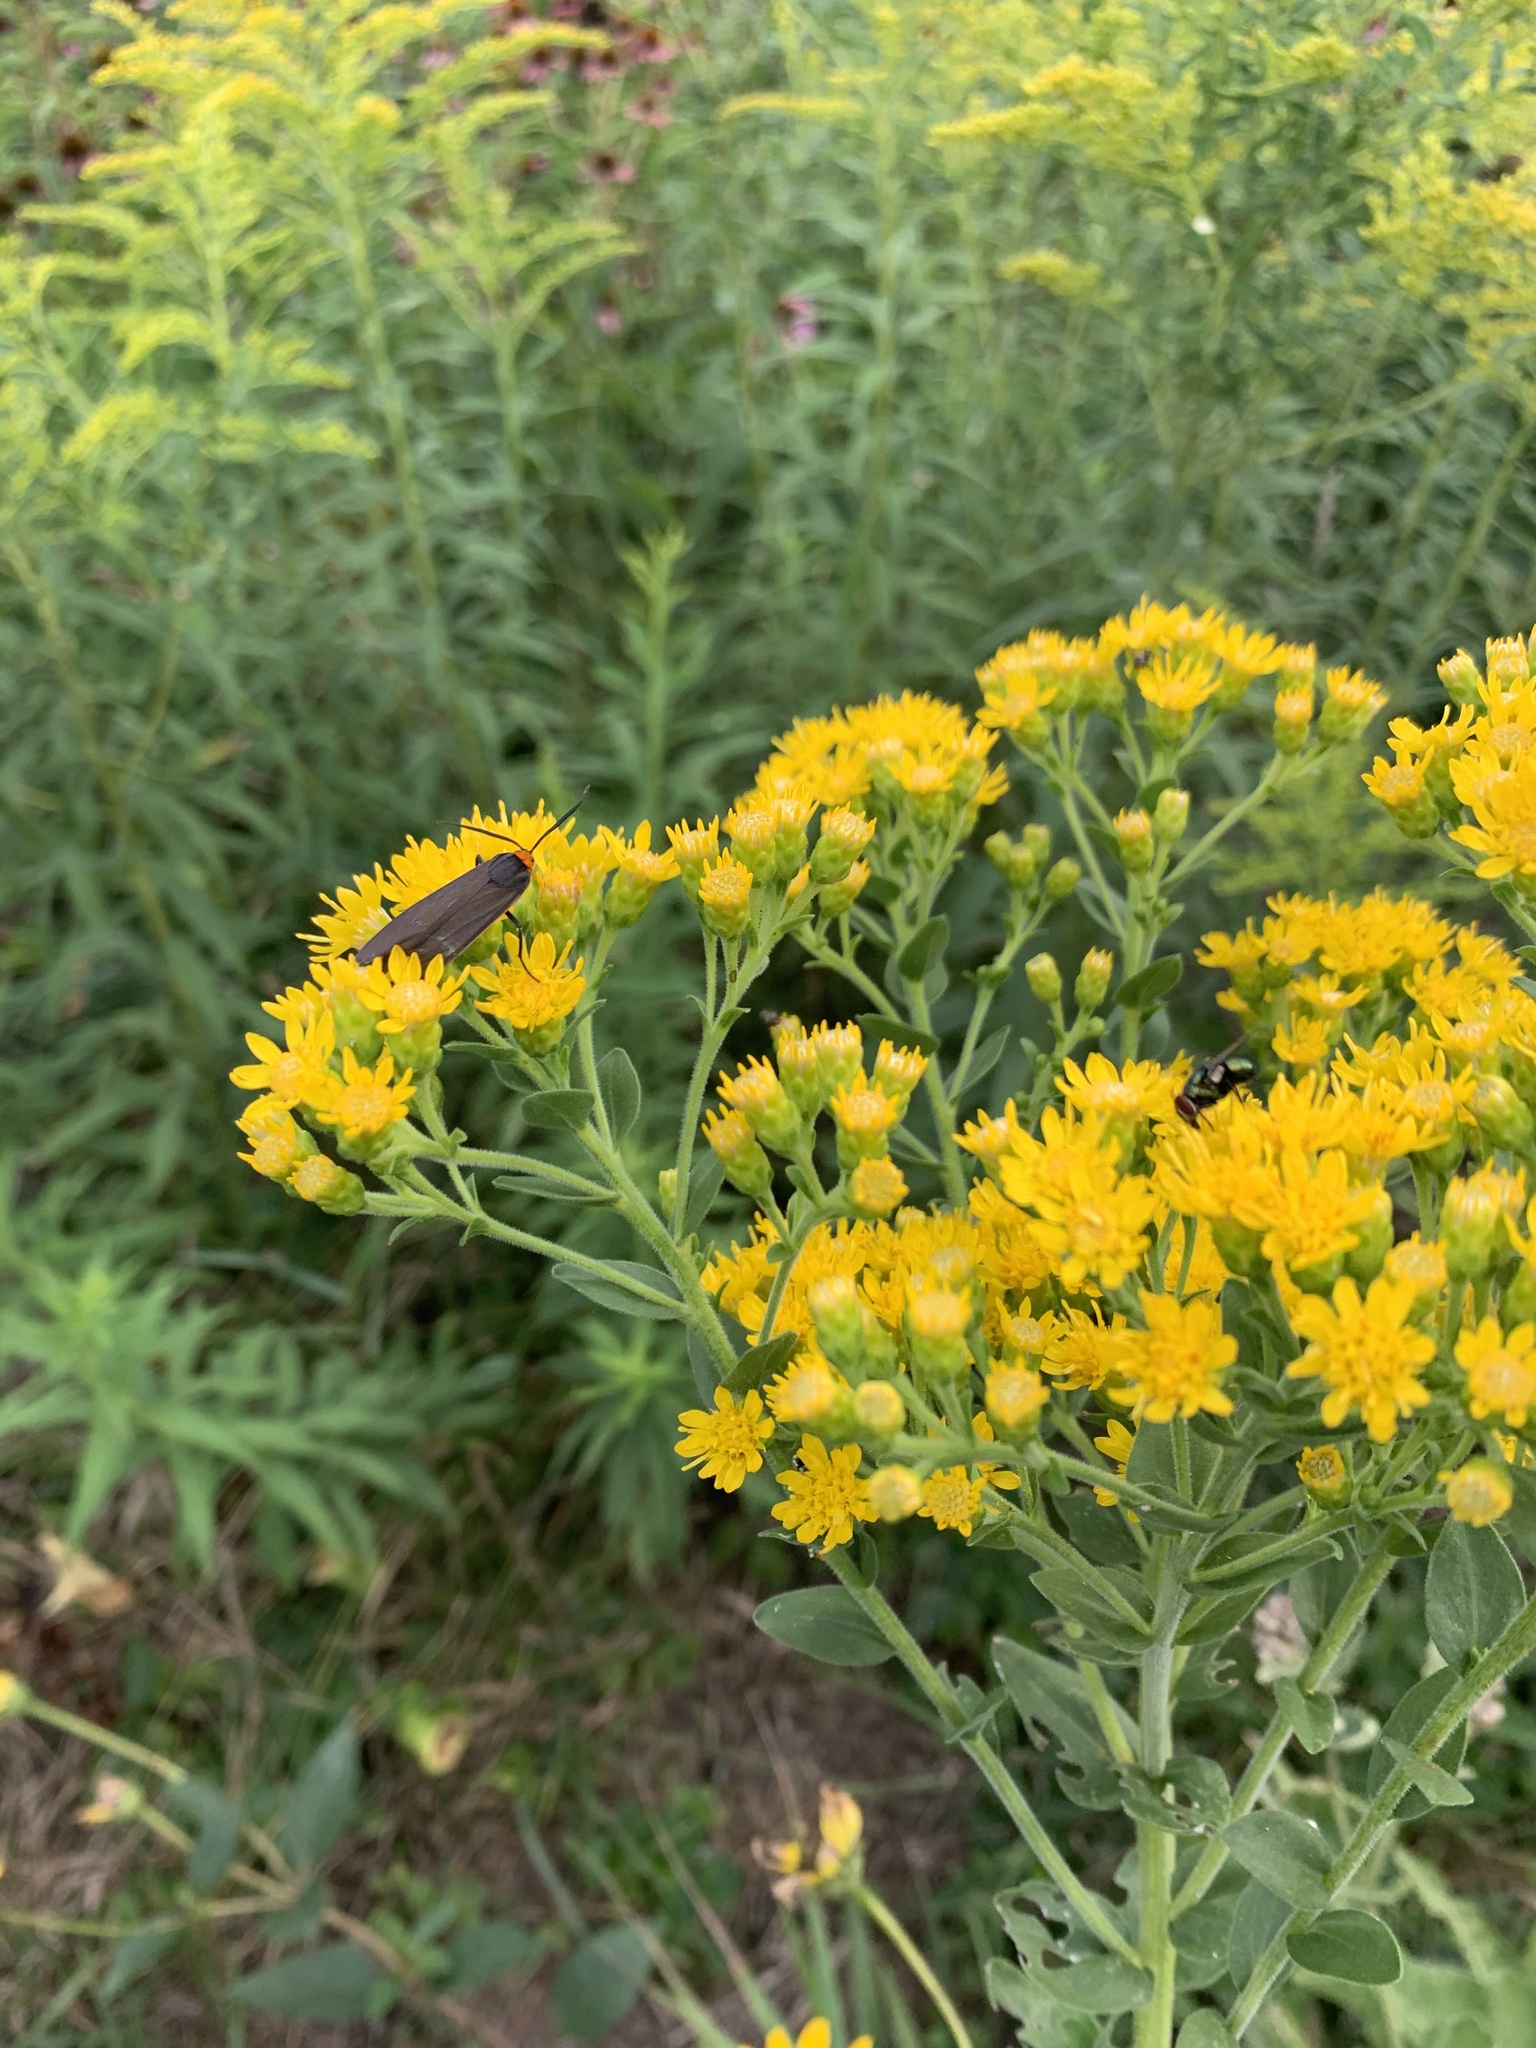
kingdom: Animalia
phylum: Arthropoda
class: Insecta
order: Lepidoptera
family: Erebidae
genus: Cisseps
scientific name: Cisseps fulvicollis
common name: Yellow-collared scape moth
